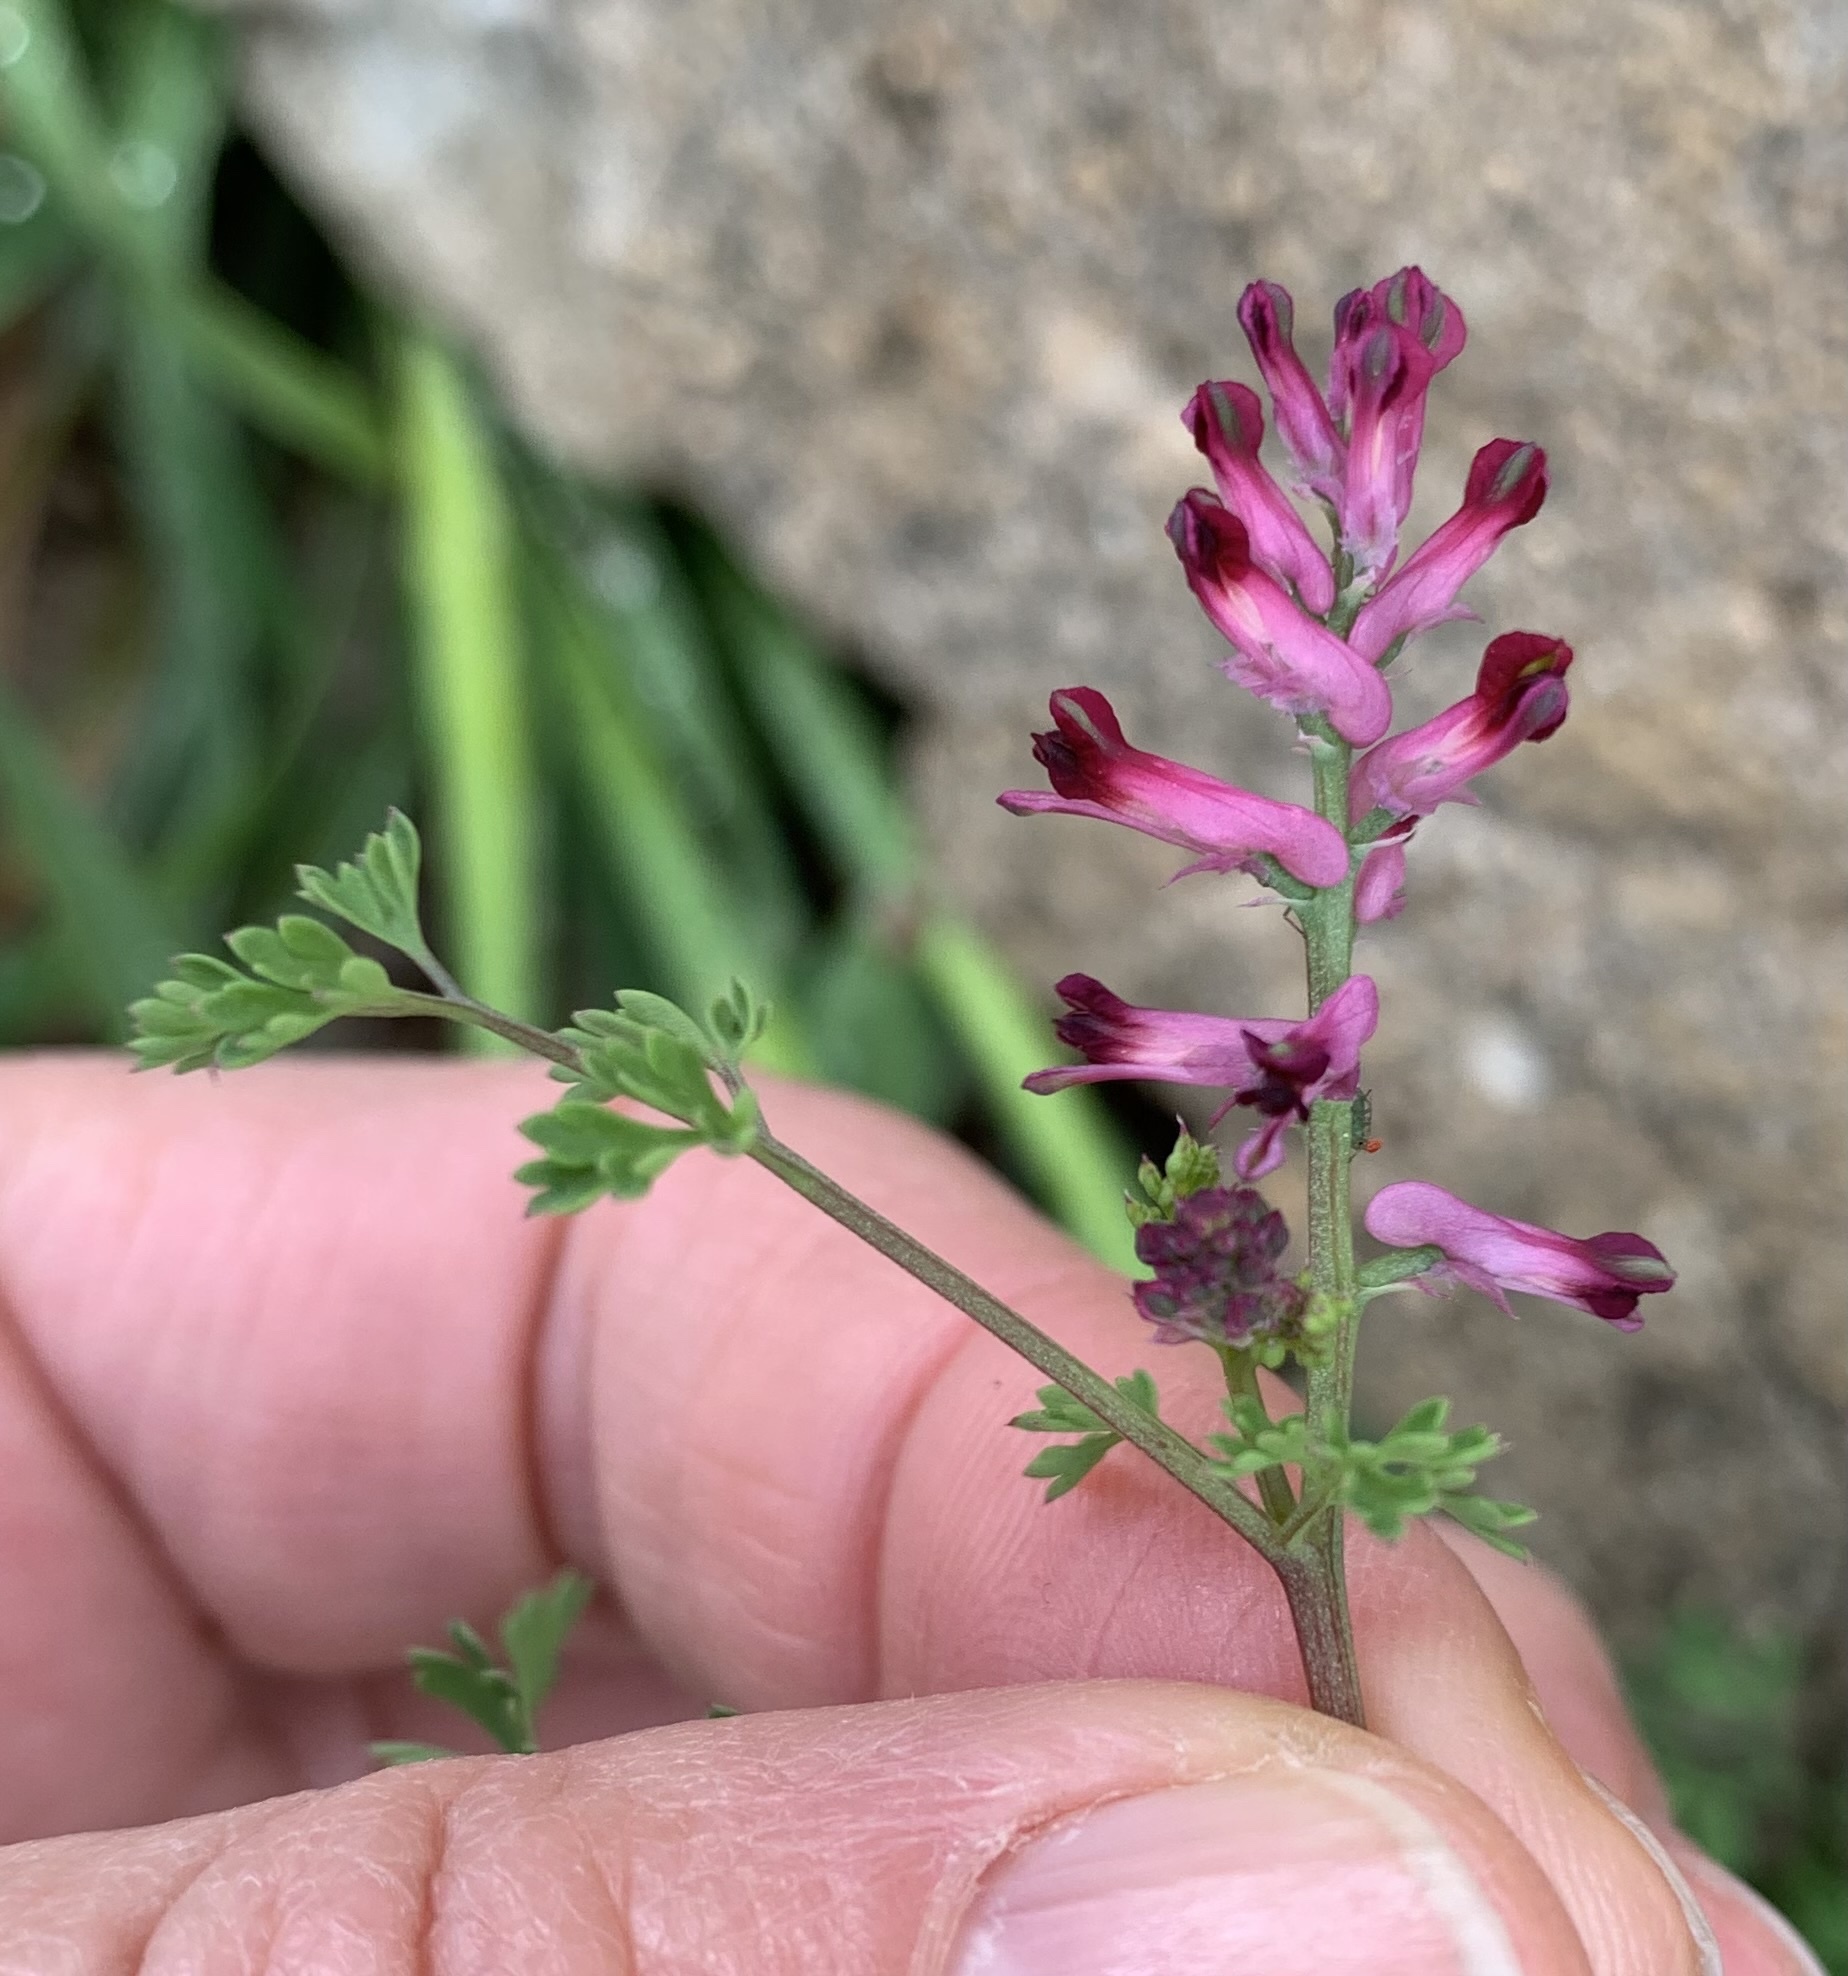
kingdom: Plantae
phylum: Tracheophyta
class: Magnoliopsida
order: Ranunculales
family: Papaveraceae
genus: Fumaria
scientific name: Fumaria officinalis
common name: Common fumitory
